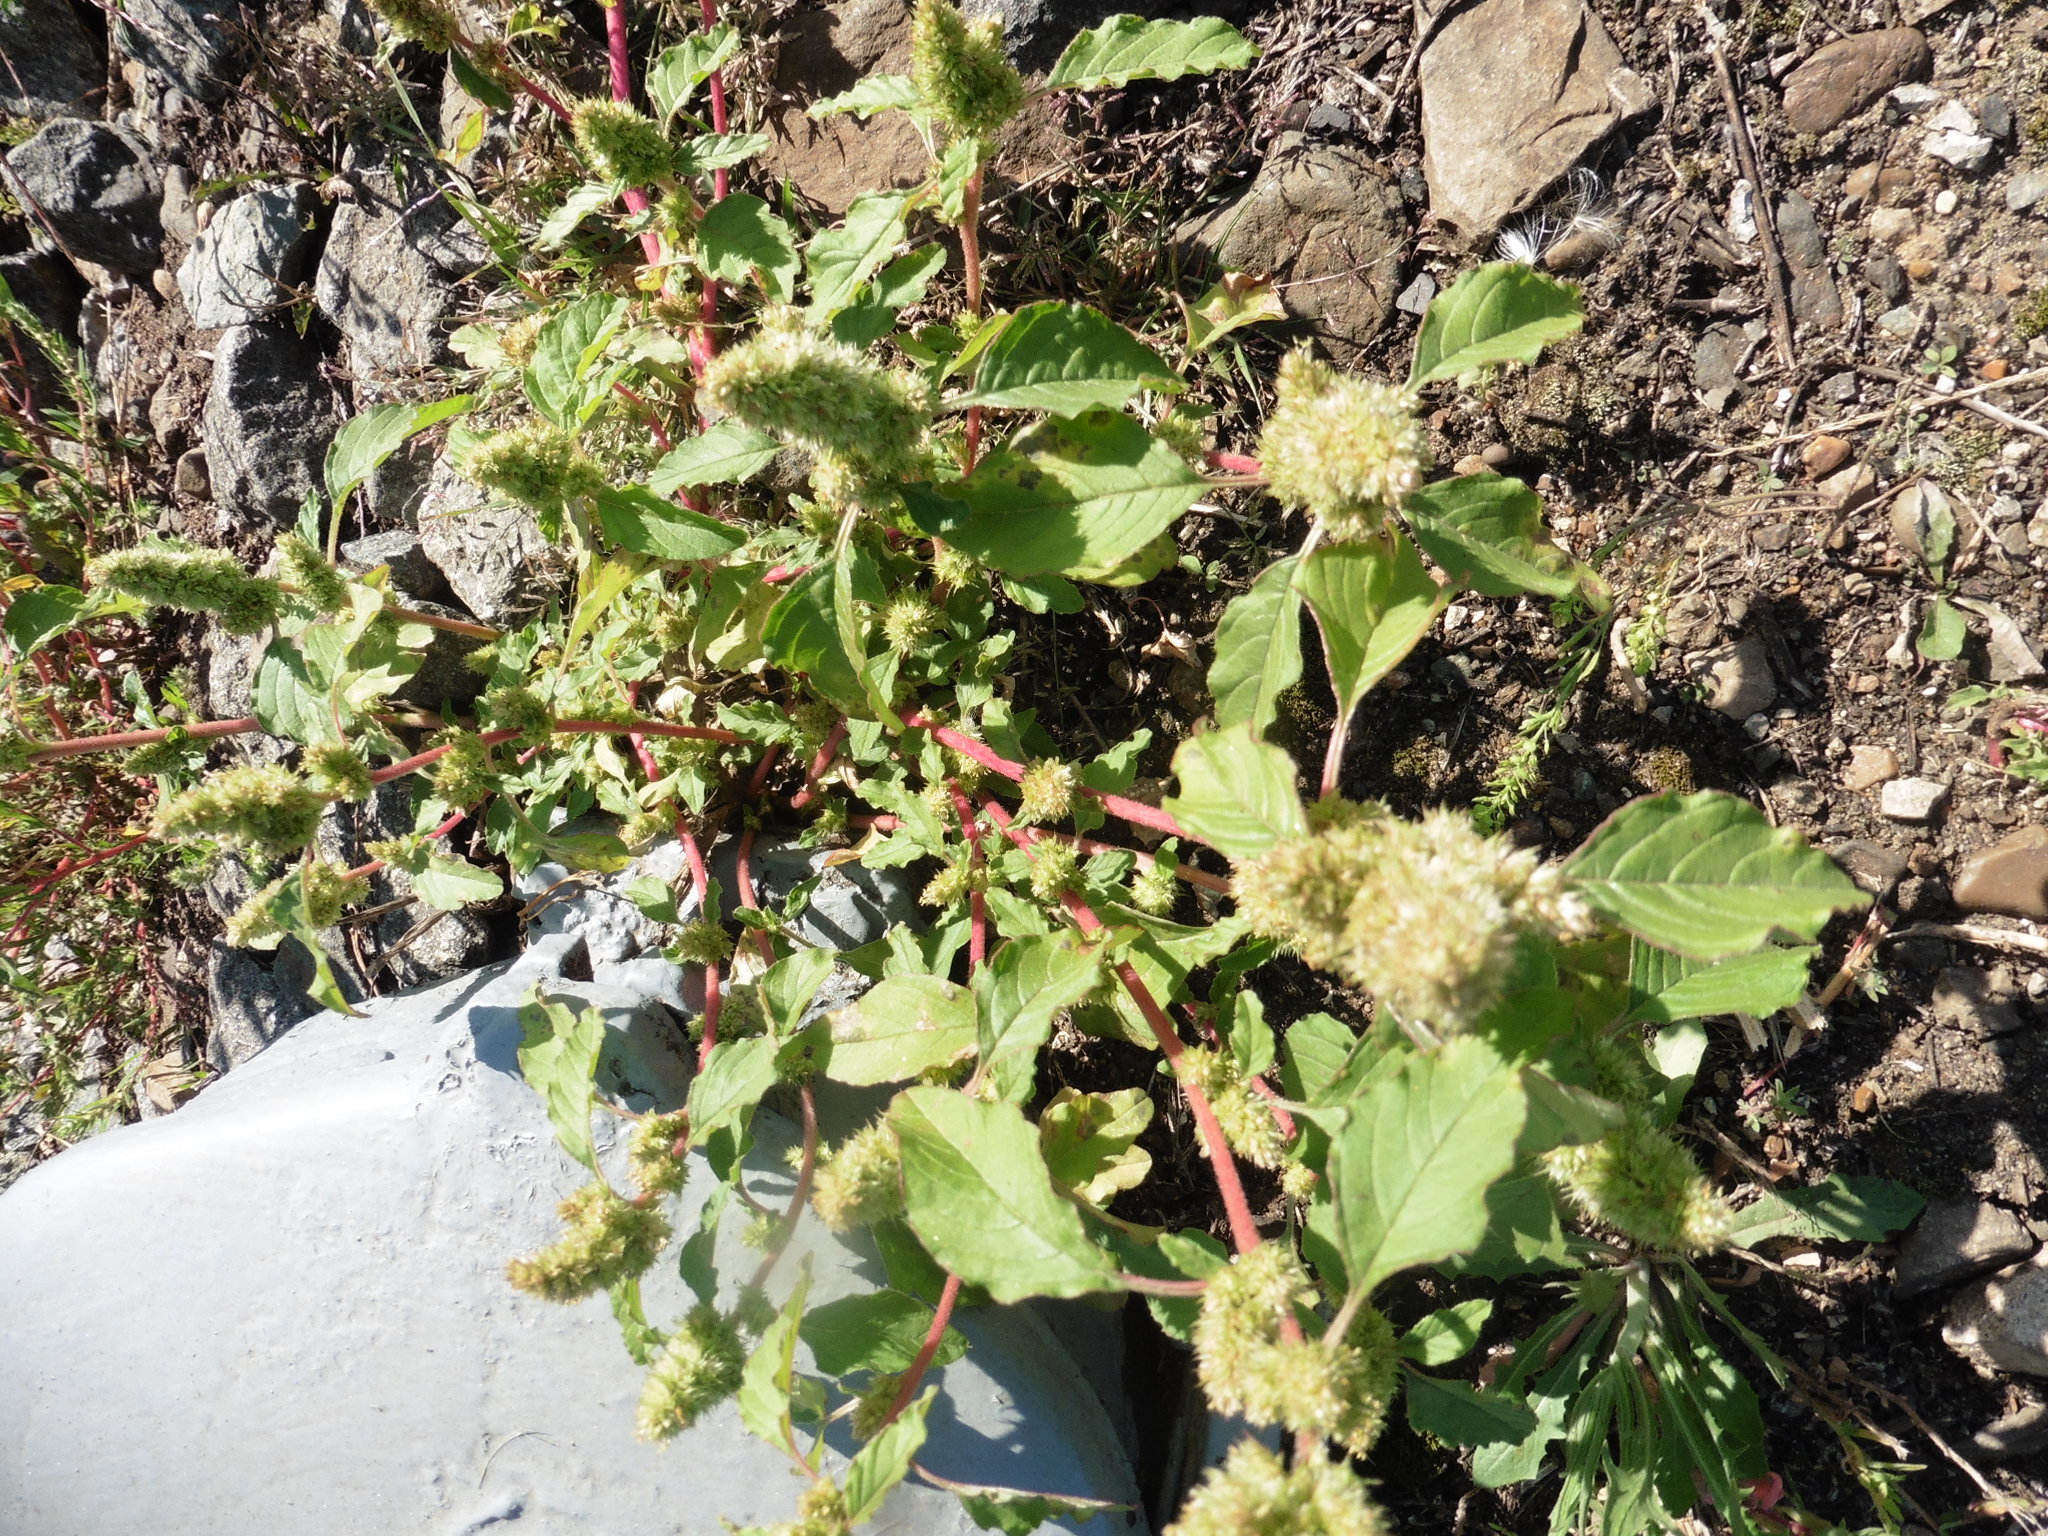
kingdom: Plantae
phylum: Tracheophyta
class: Magnoliopsida
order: Caryophyllales
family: Amaranthaceae
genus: Amaranthus
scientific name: Amaranthus retroflexus
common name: Redroot amaranth
